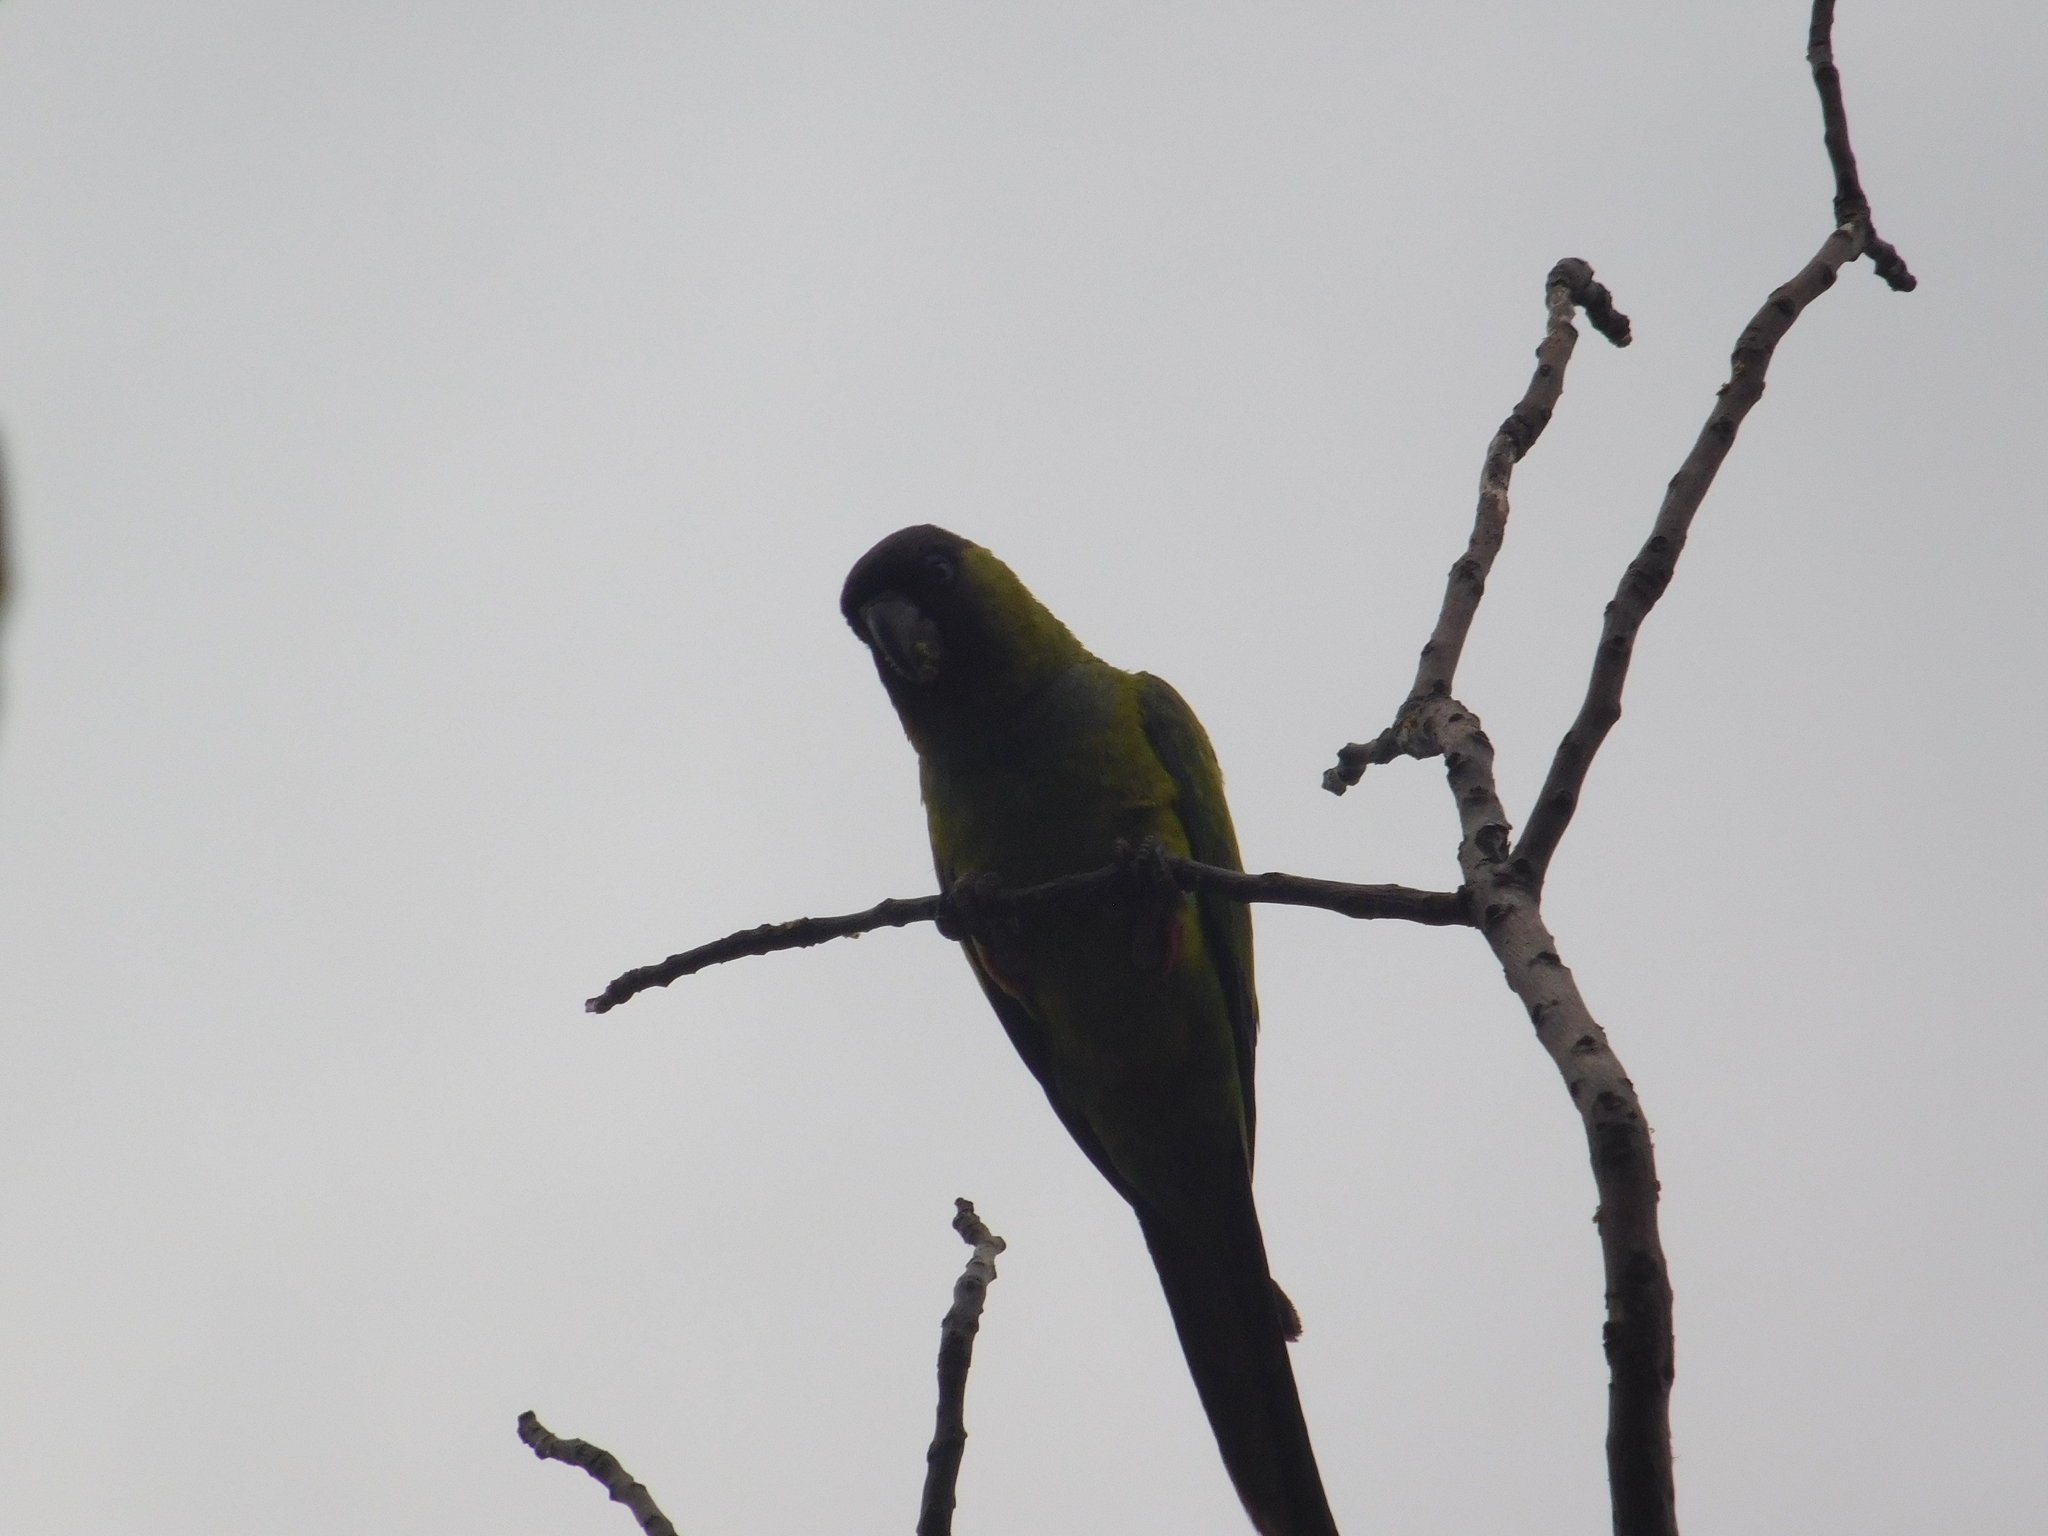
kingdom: Animalia
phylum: Chordata
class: Aves
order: Psittaciformes
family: Psittacidae
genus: Nandayus
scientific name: Nandayus nenday
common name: Nanday parakeet
